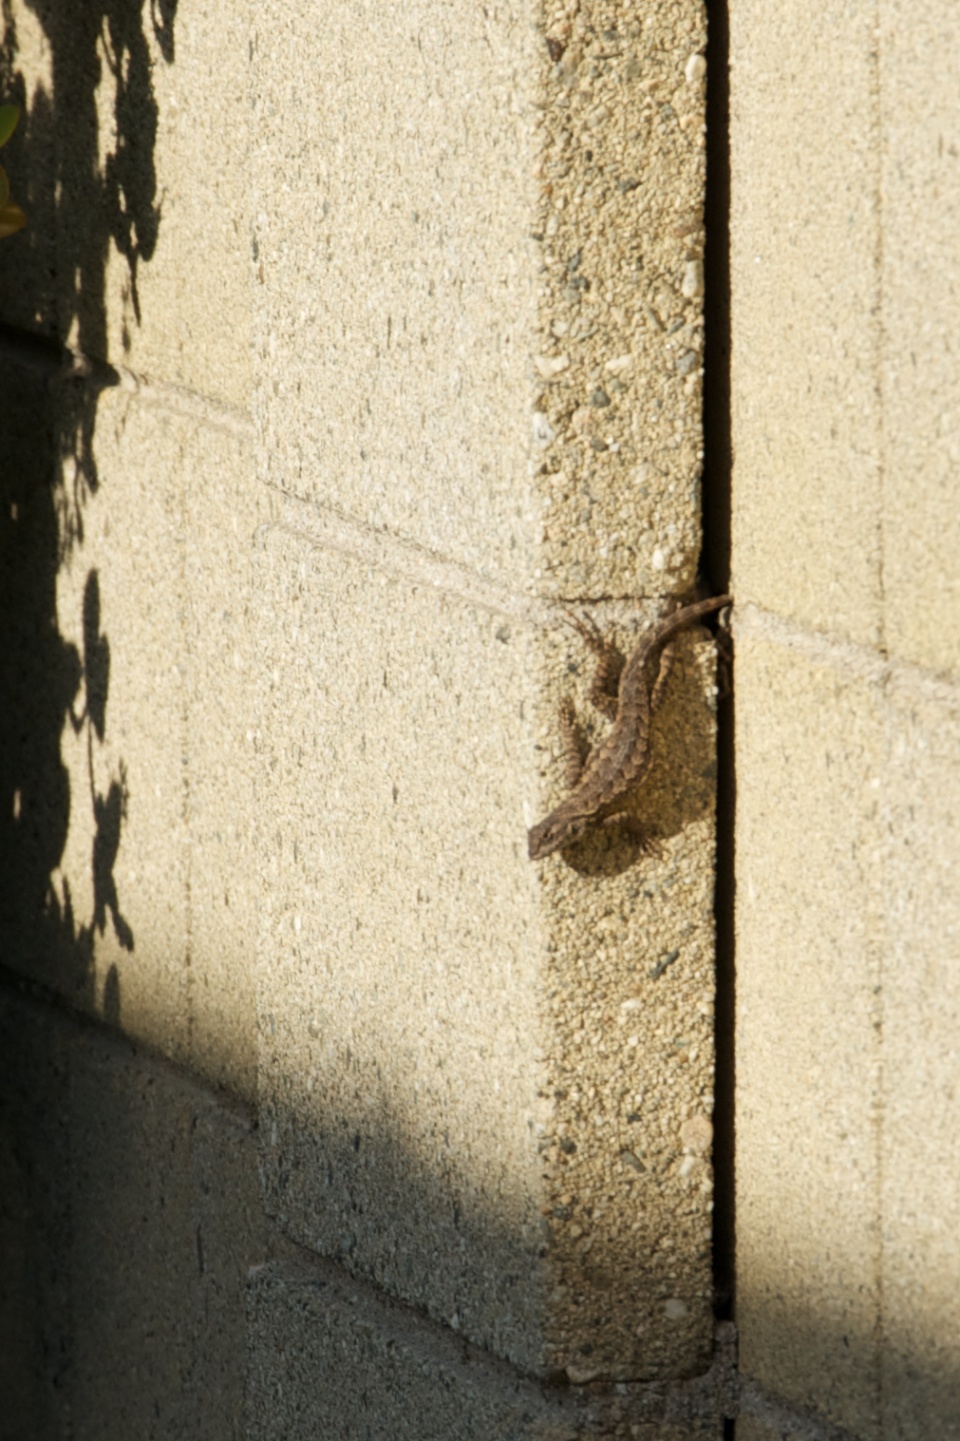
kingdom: Animalia
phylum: Chordata
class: Squamata
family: Phrynosomatidae
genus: Sceloporus
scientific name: Sceloporus occidentalis
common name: Western fence lizard
